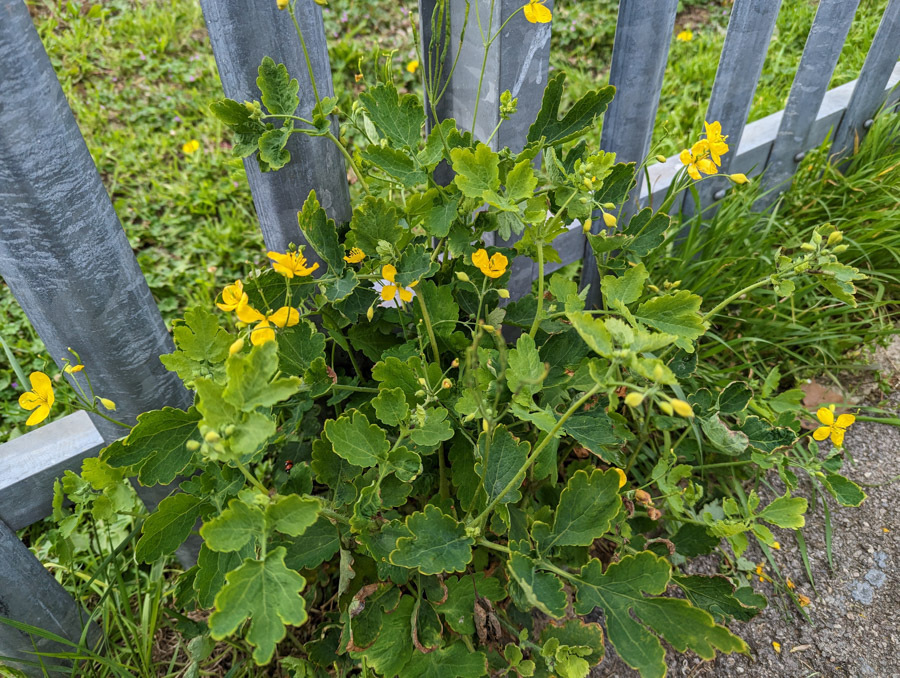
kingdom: Plantae
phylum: Tracheophyta
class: Magnoliopsida
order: Ranunculales
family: Papaveraceae
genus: Chelidonium
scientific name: Chelidonium majus
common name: Greater celandine
